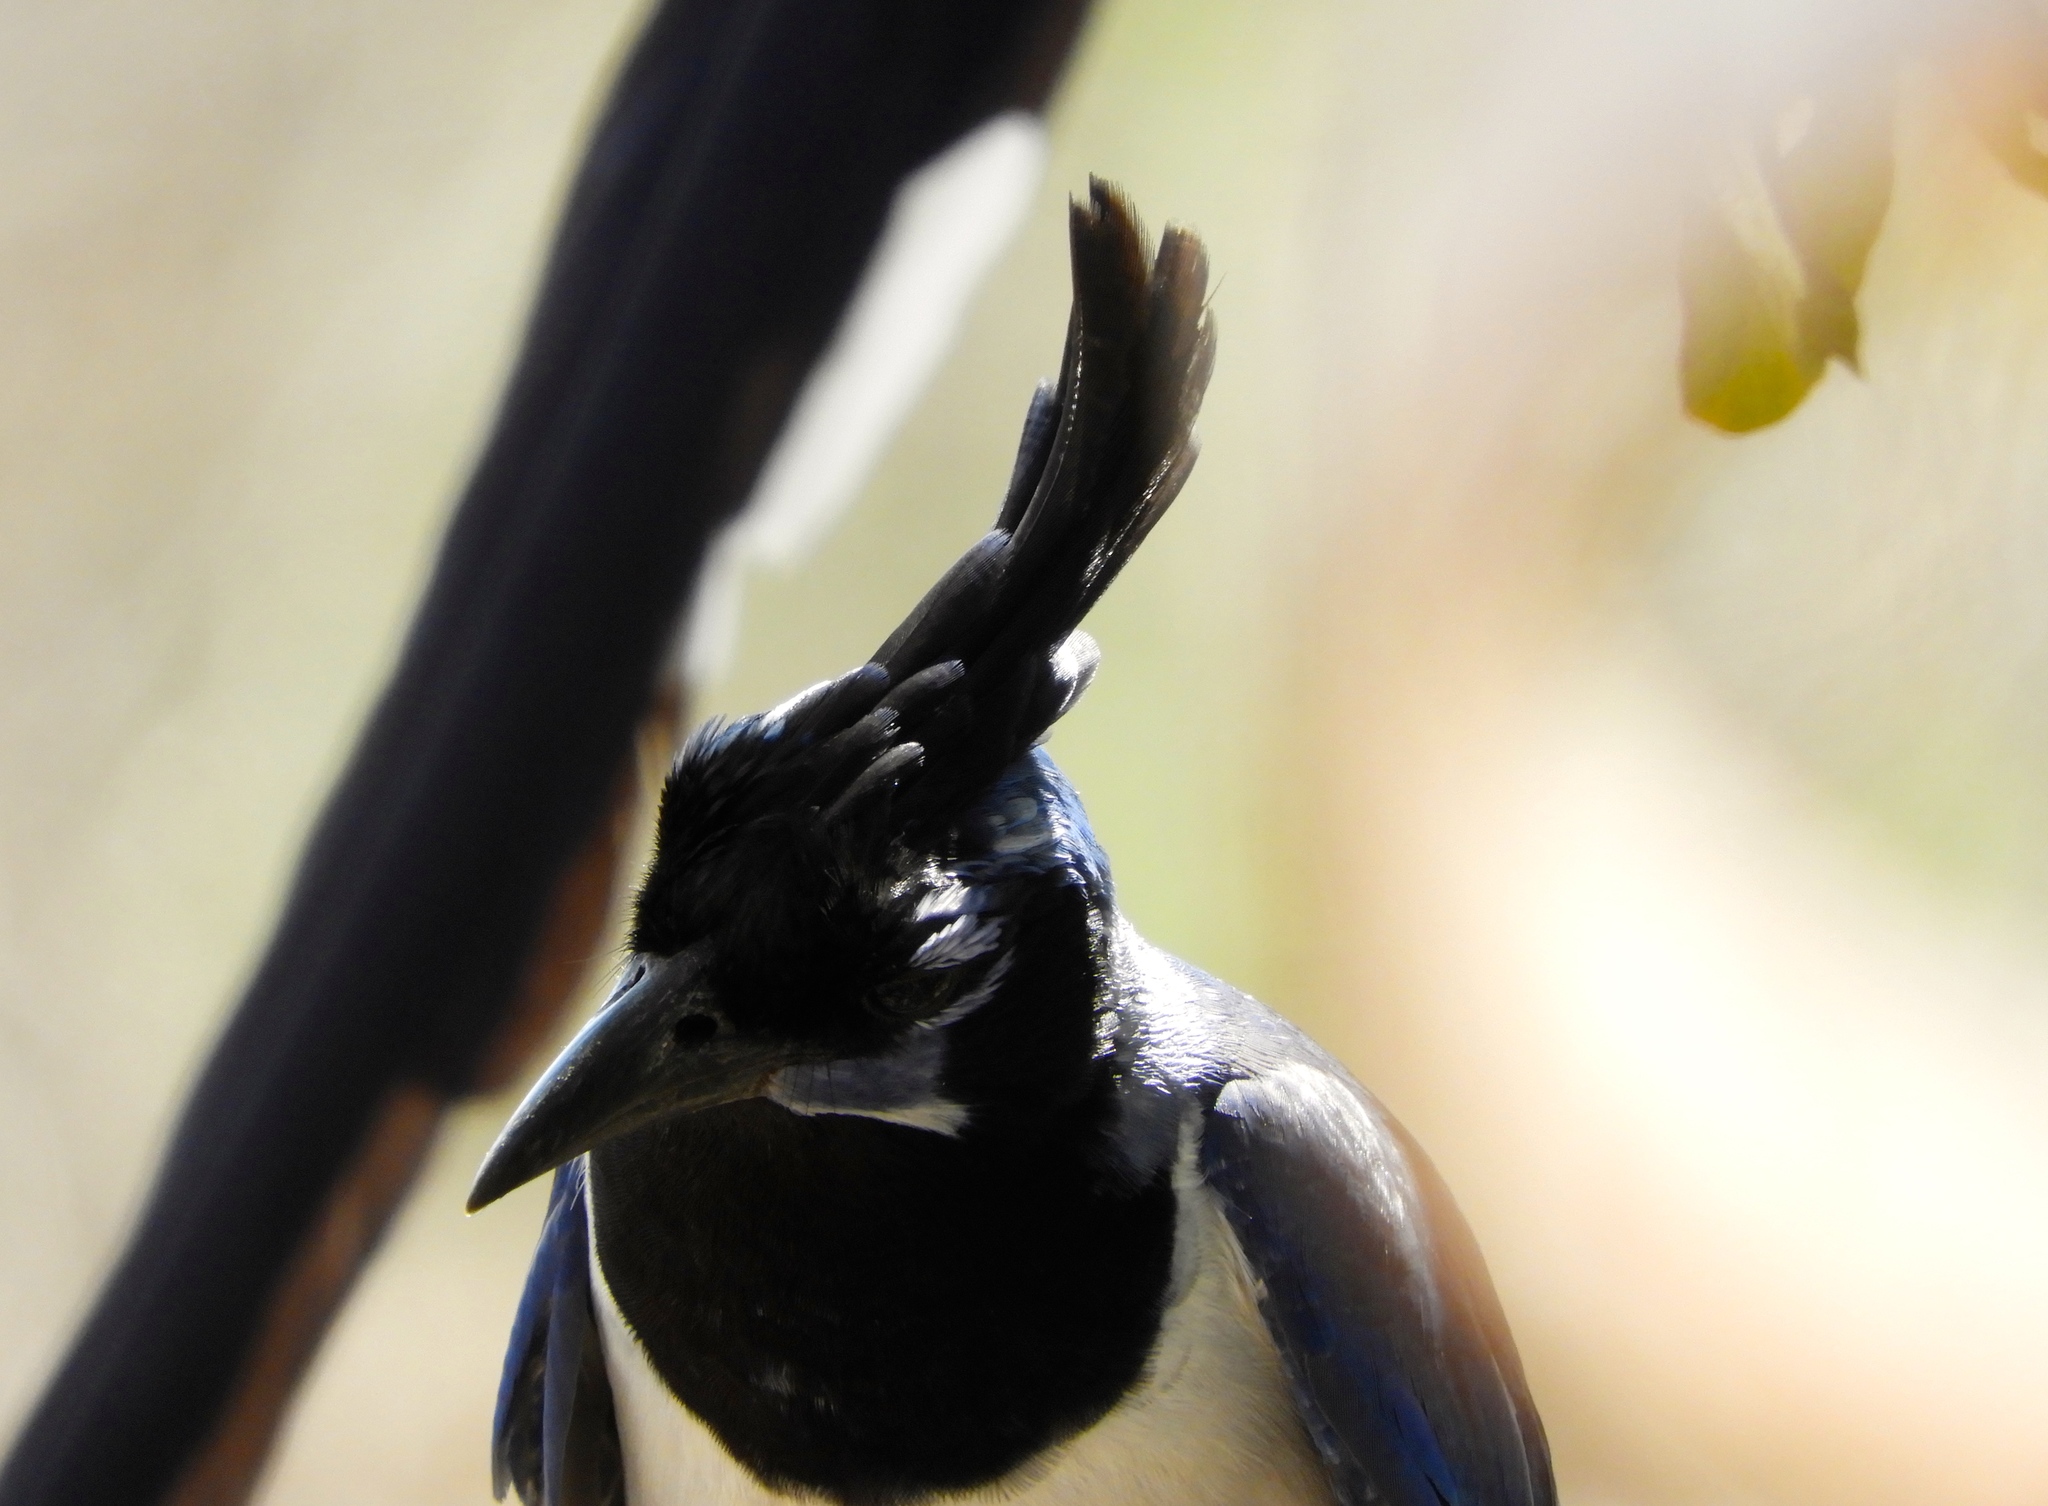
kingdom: Animalia
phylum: Chordata
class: Aves
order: Passeriformes
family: Corvidae
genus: Calocitta
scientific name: Calocitta colliei
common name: Black-throated magpie-jay
